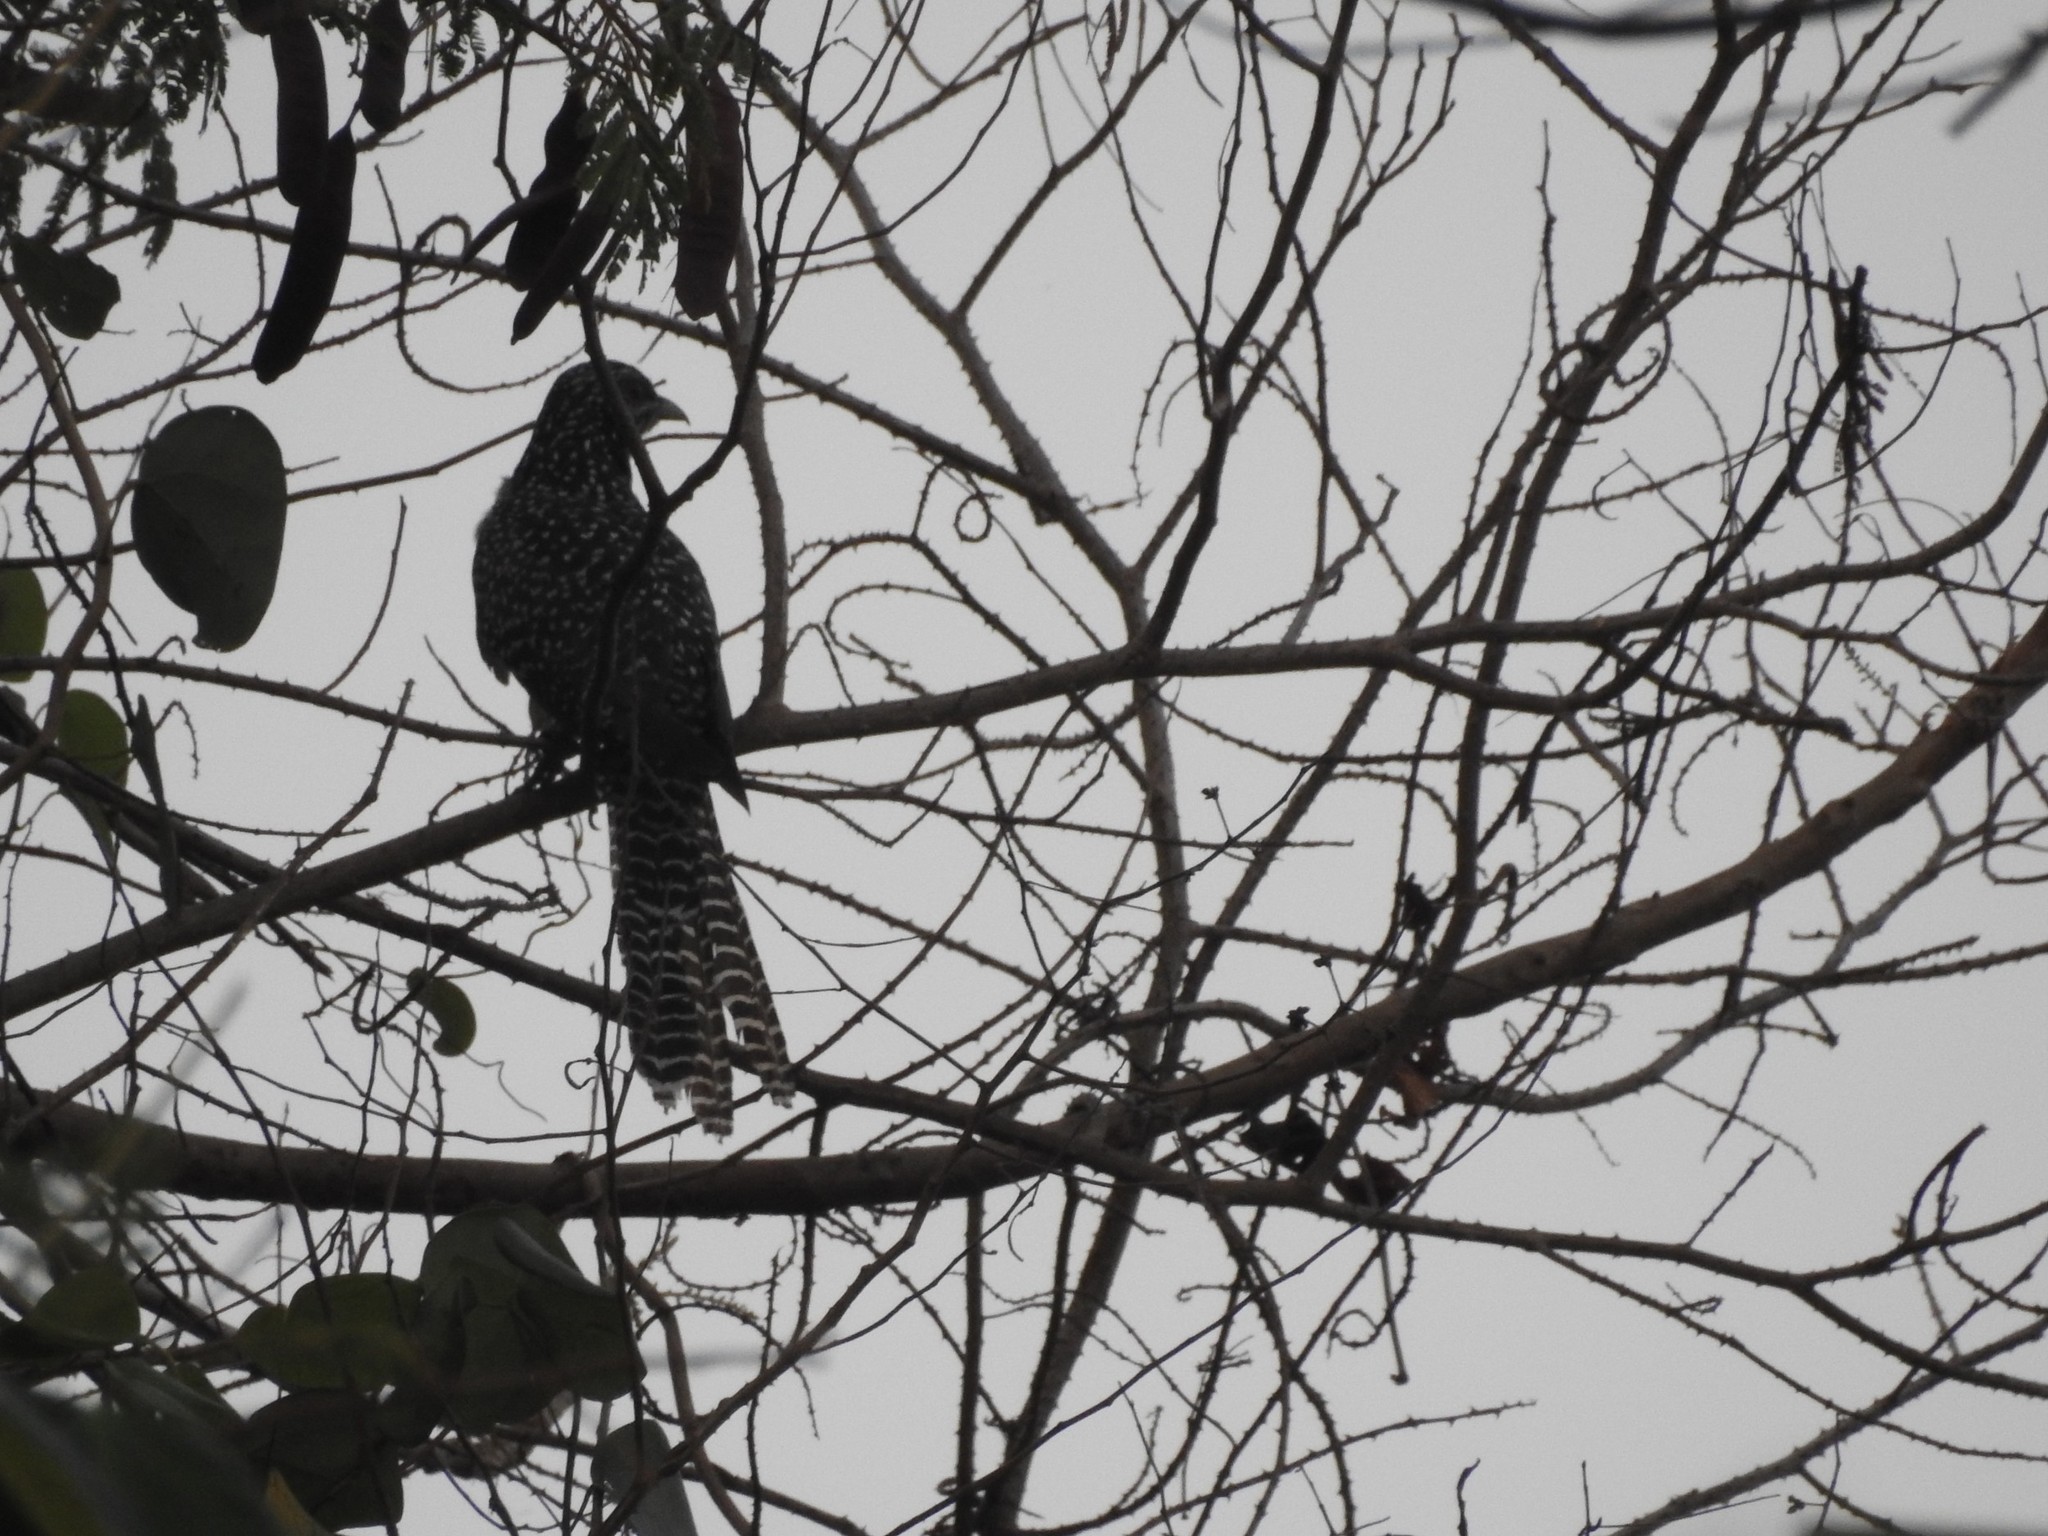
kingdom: Animalia
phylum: Chordata
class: Aves
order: Cuculiformes
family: Cuculidae
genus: Eudynamys
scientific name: Eudynamys scolopaceus
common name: Asian koel
